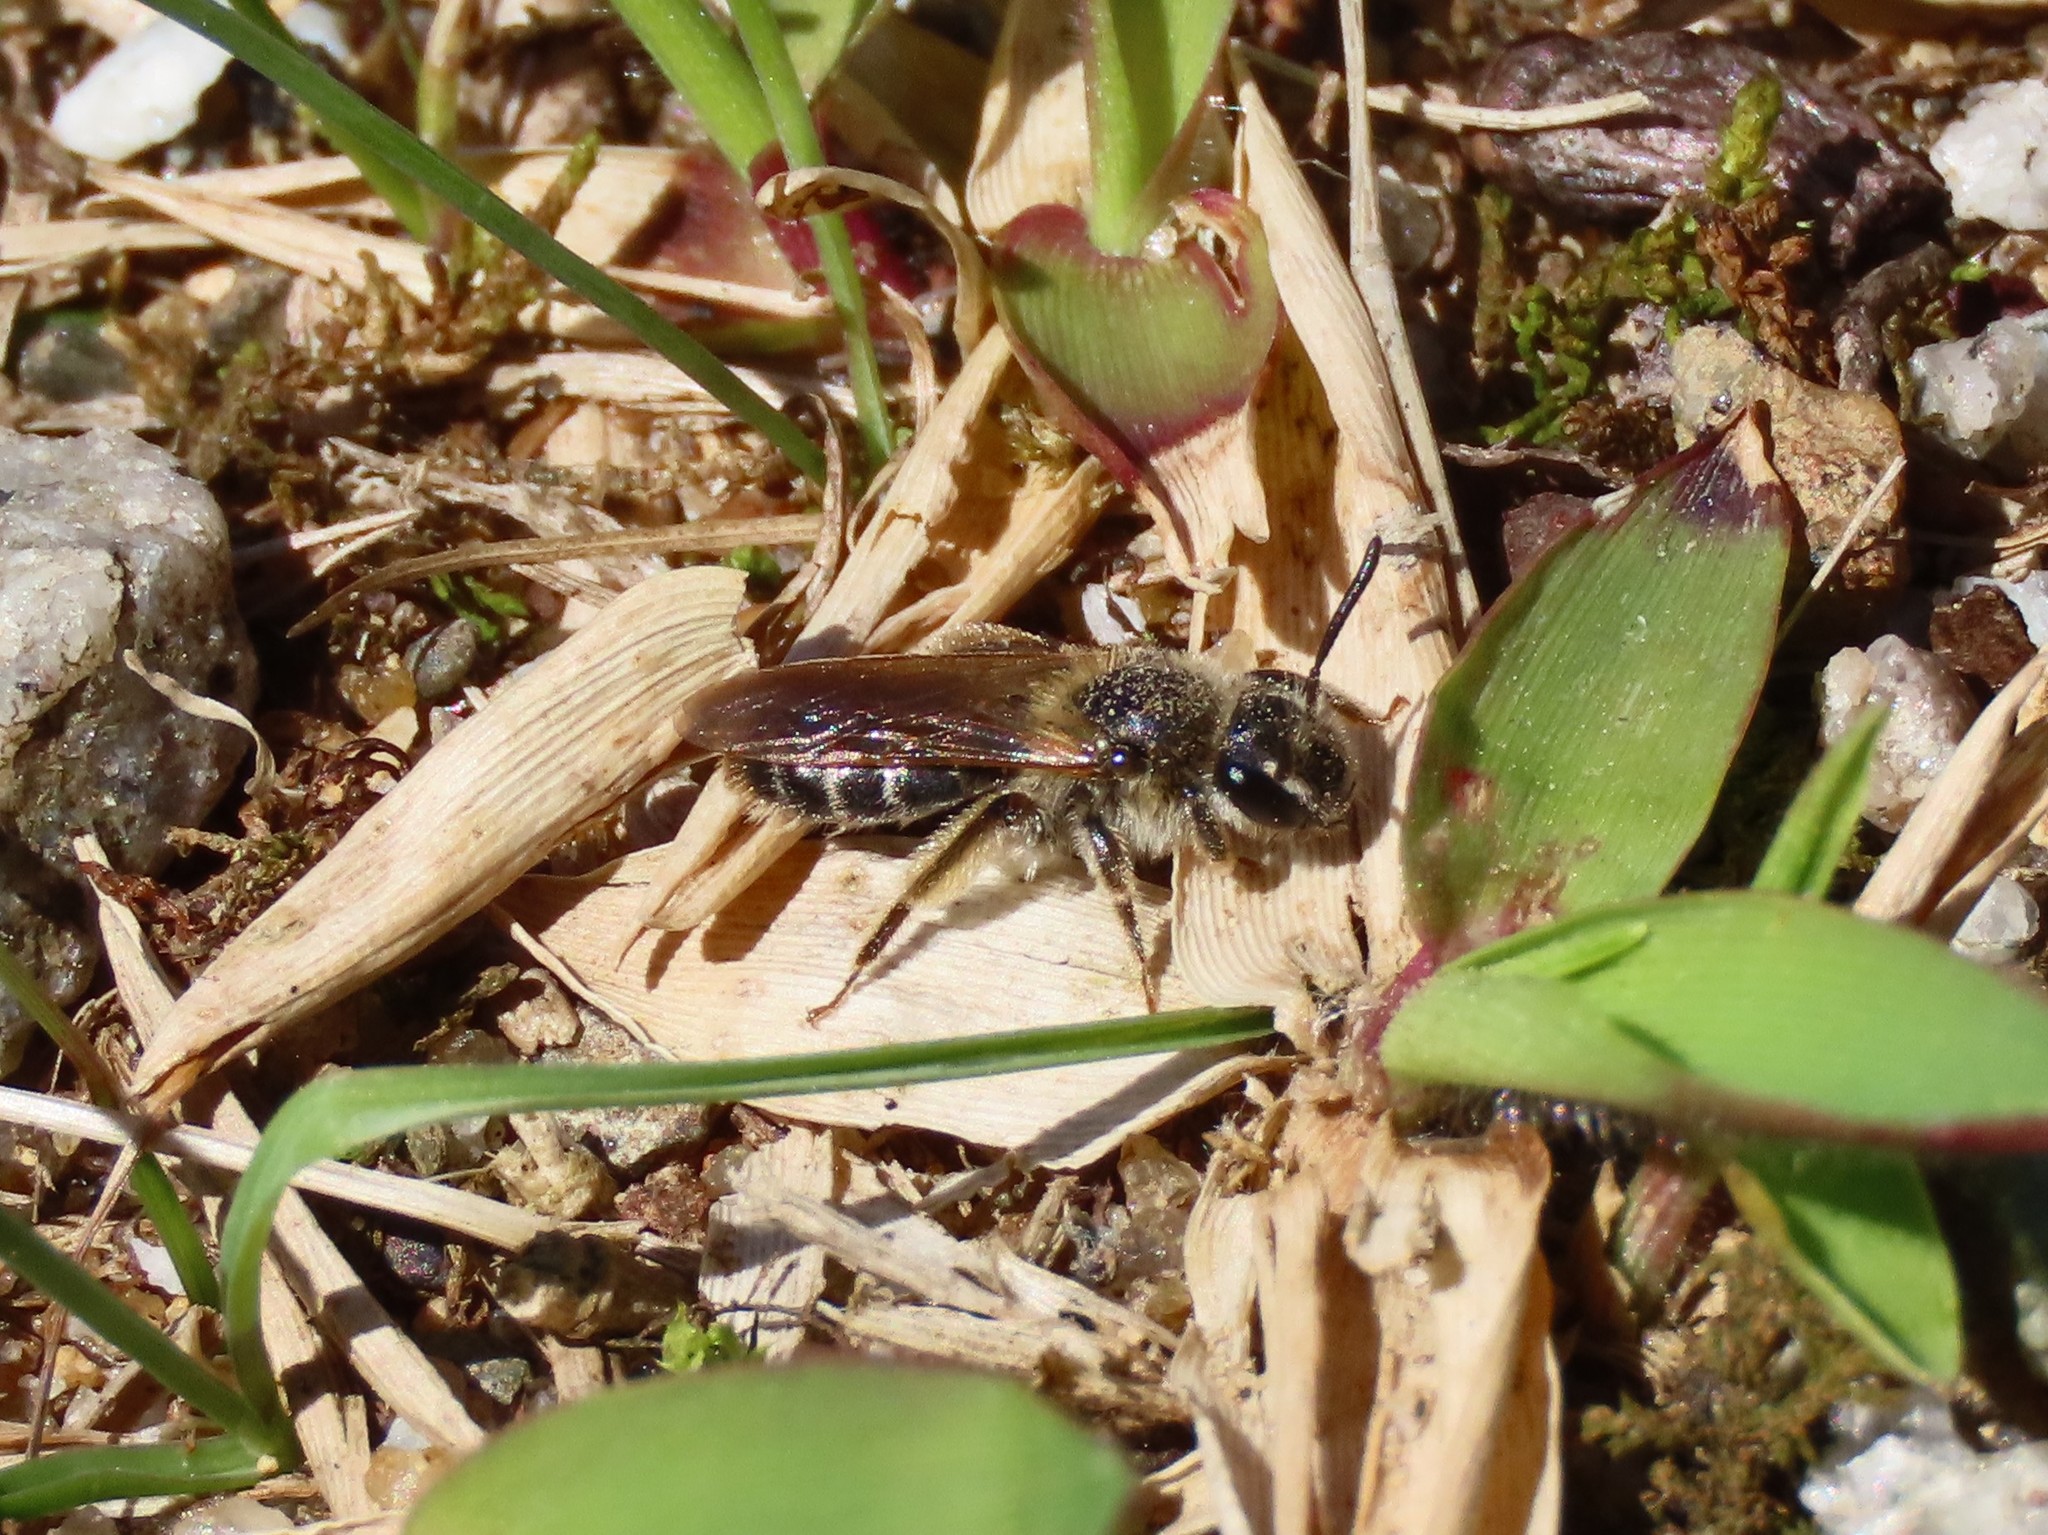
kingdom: Animalia
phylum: Arthropoda
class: Insecta
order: Hymenoptera
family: Andrenidae
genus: Andrena
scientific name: Andrena miserabilis
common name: Miserable mining bee
